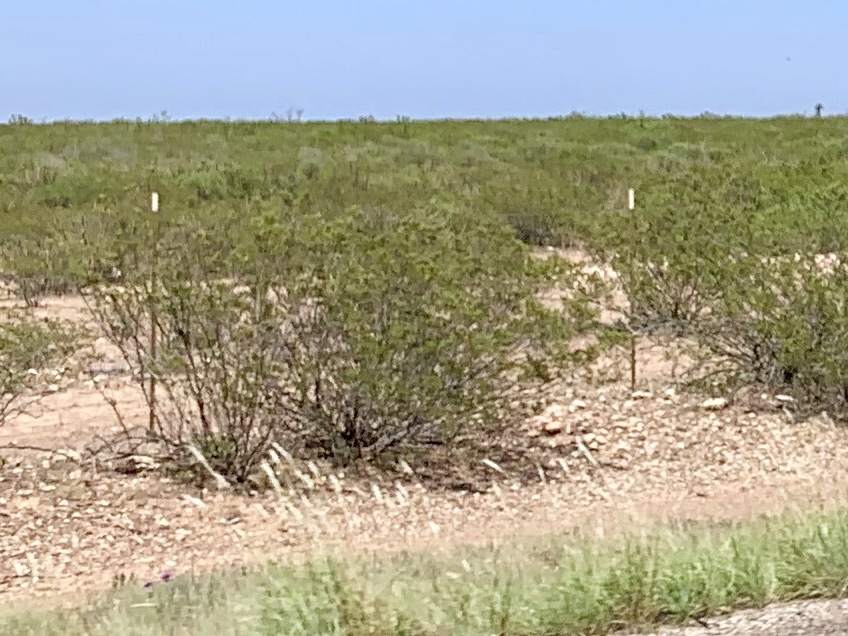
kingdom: Plantae
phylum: Tracheophyta
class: Magnoliopsida
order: Zygophyllales
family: Zygophyllaceae
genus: Larrea
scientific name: Larrea tridentata
